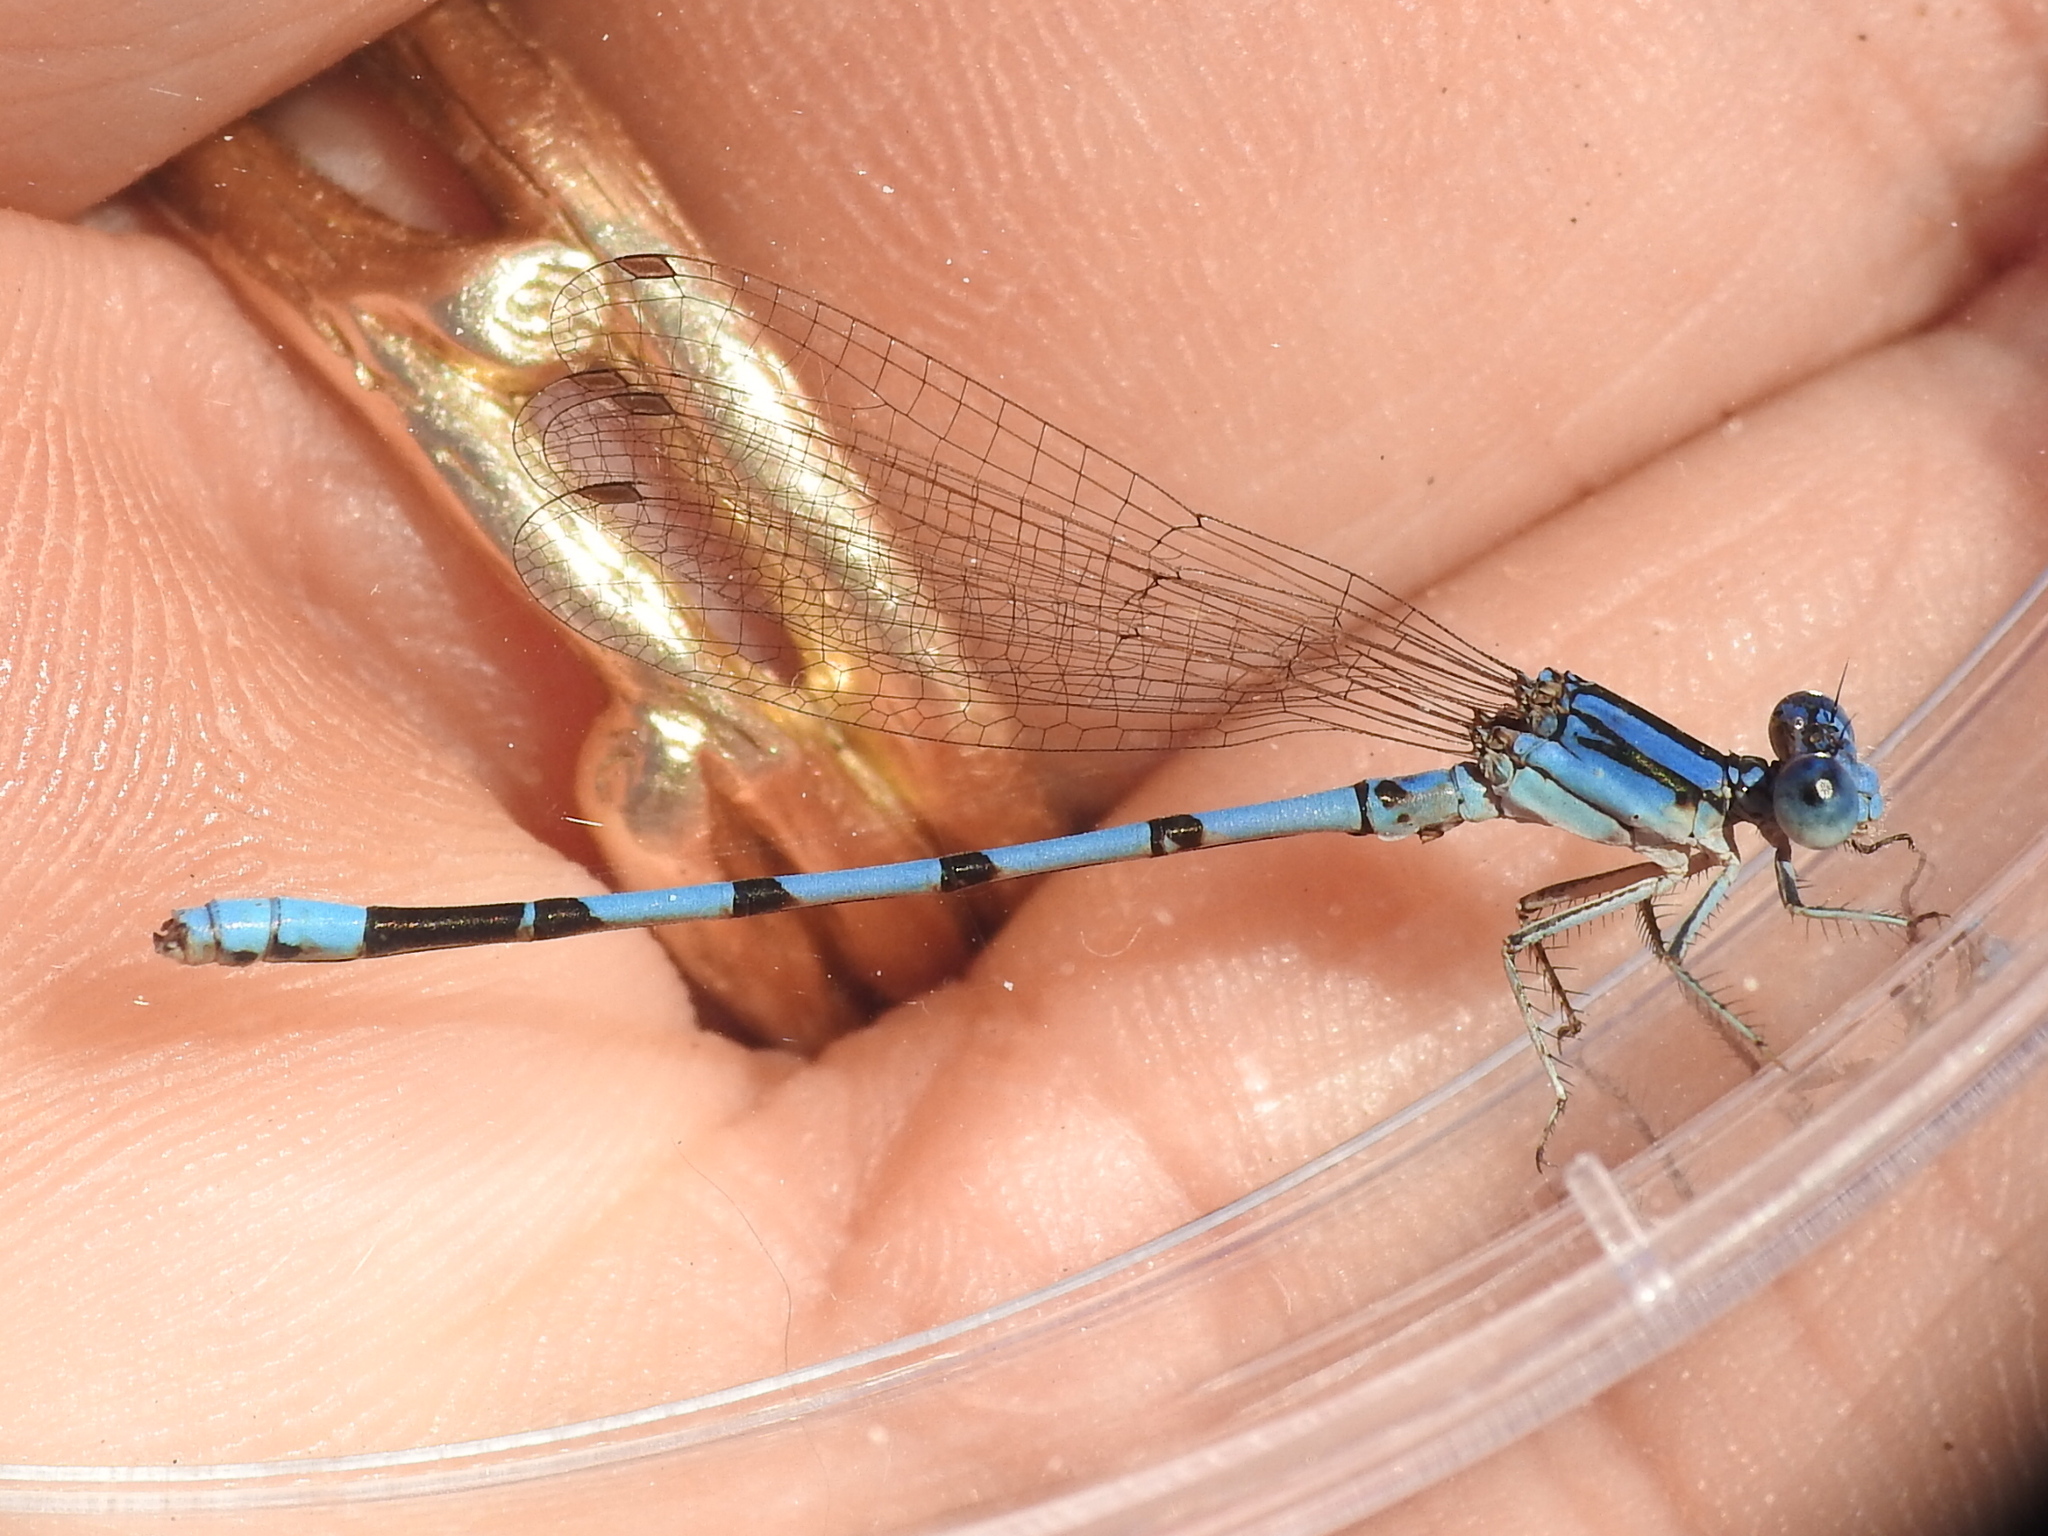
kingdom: Animalia
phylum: Arthropoda
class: Insecta
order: Odonata
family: Coenagrionidae
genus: Argia
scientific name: Argia nahuana
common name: Aztec dancer
